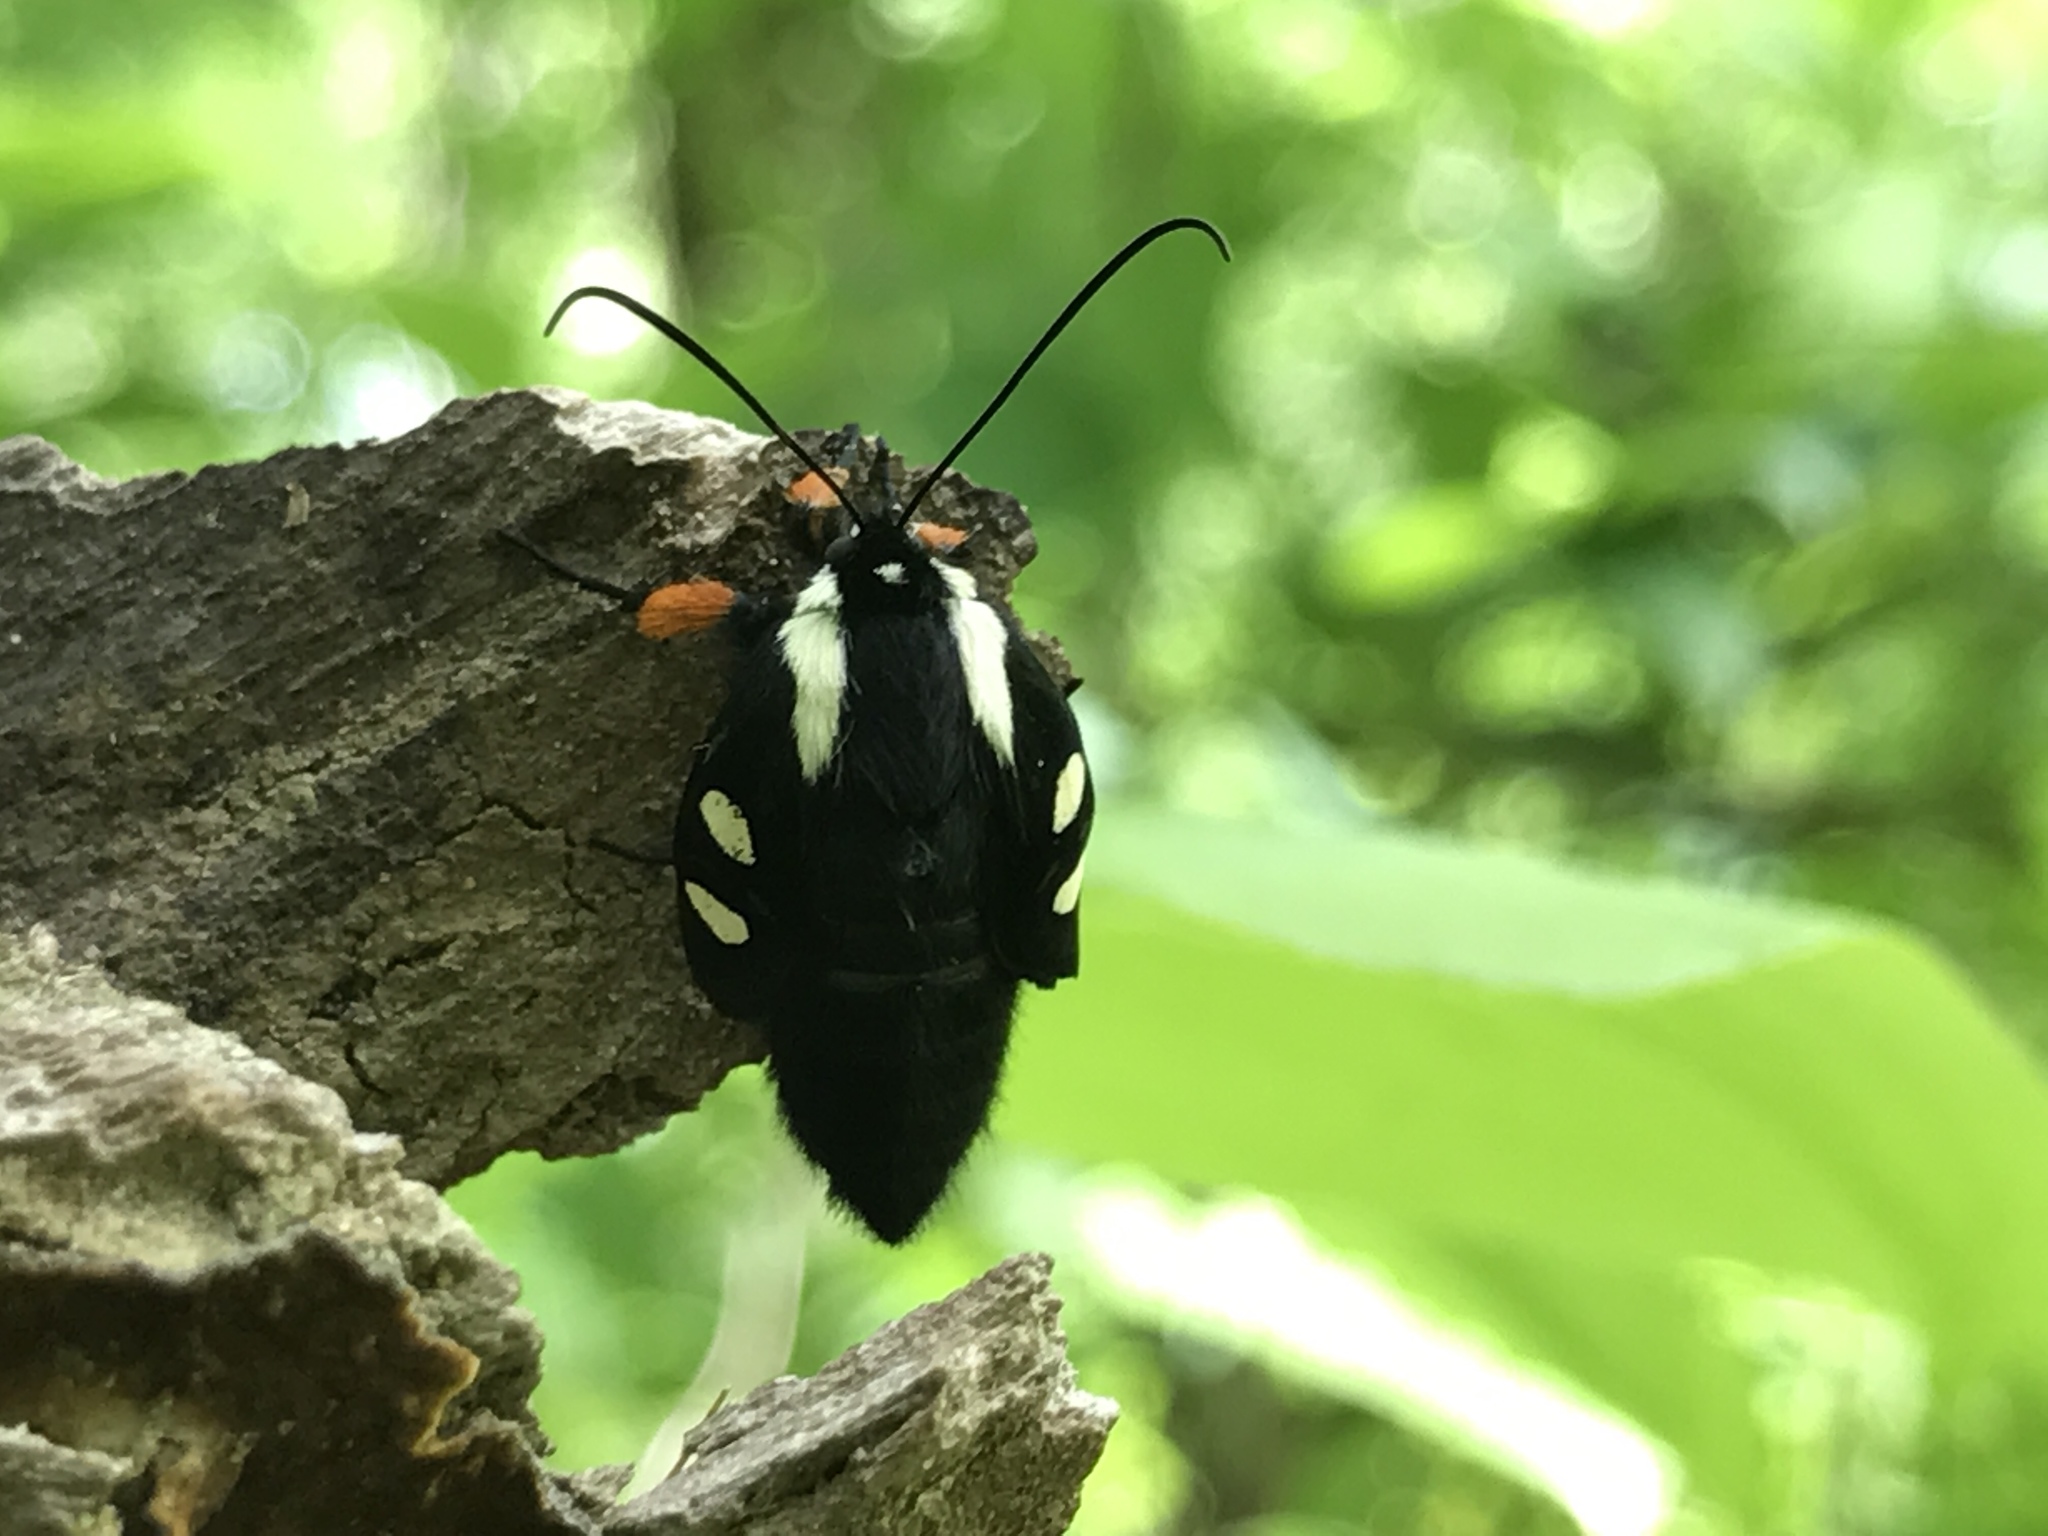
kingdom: Animalia
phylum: Arthropoda
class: Insecta
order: Lepidoptera
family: Noctuidae
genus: Alypia
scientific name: Alypia octomaculata
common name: Eight-spotted forester
